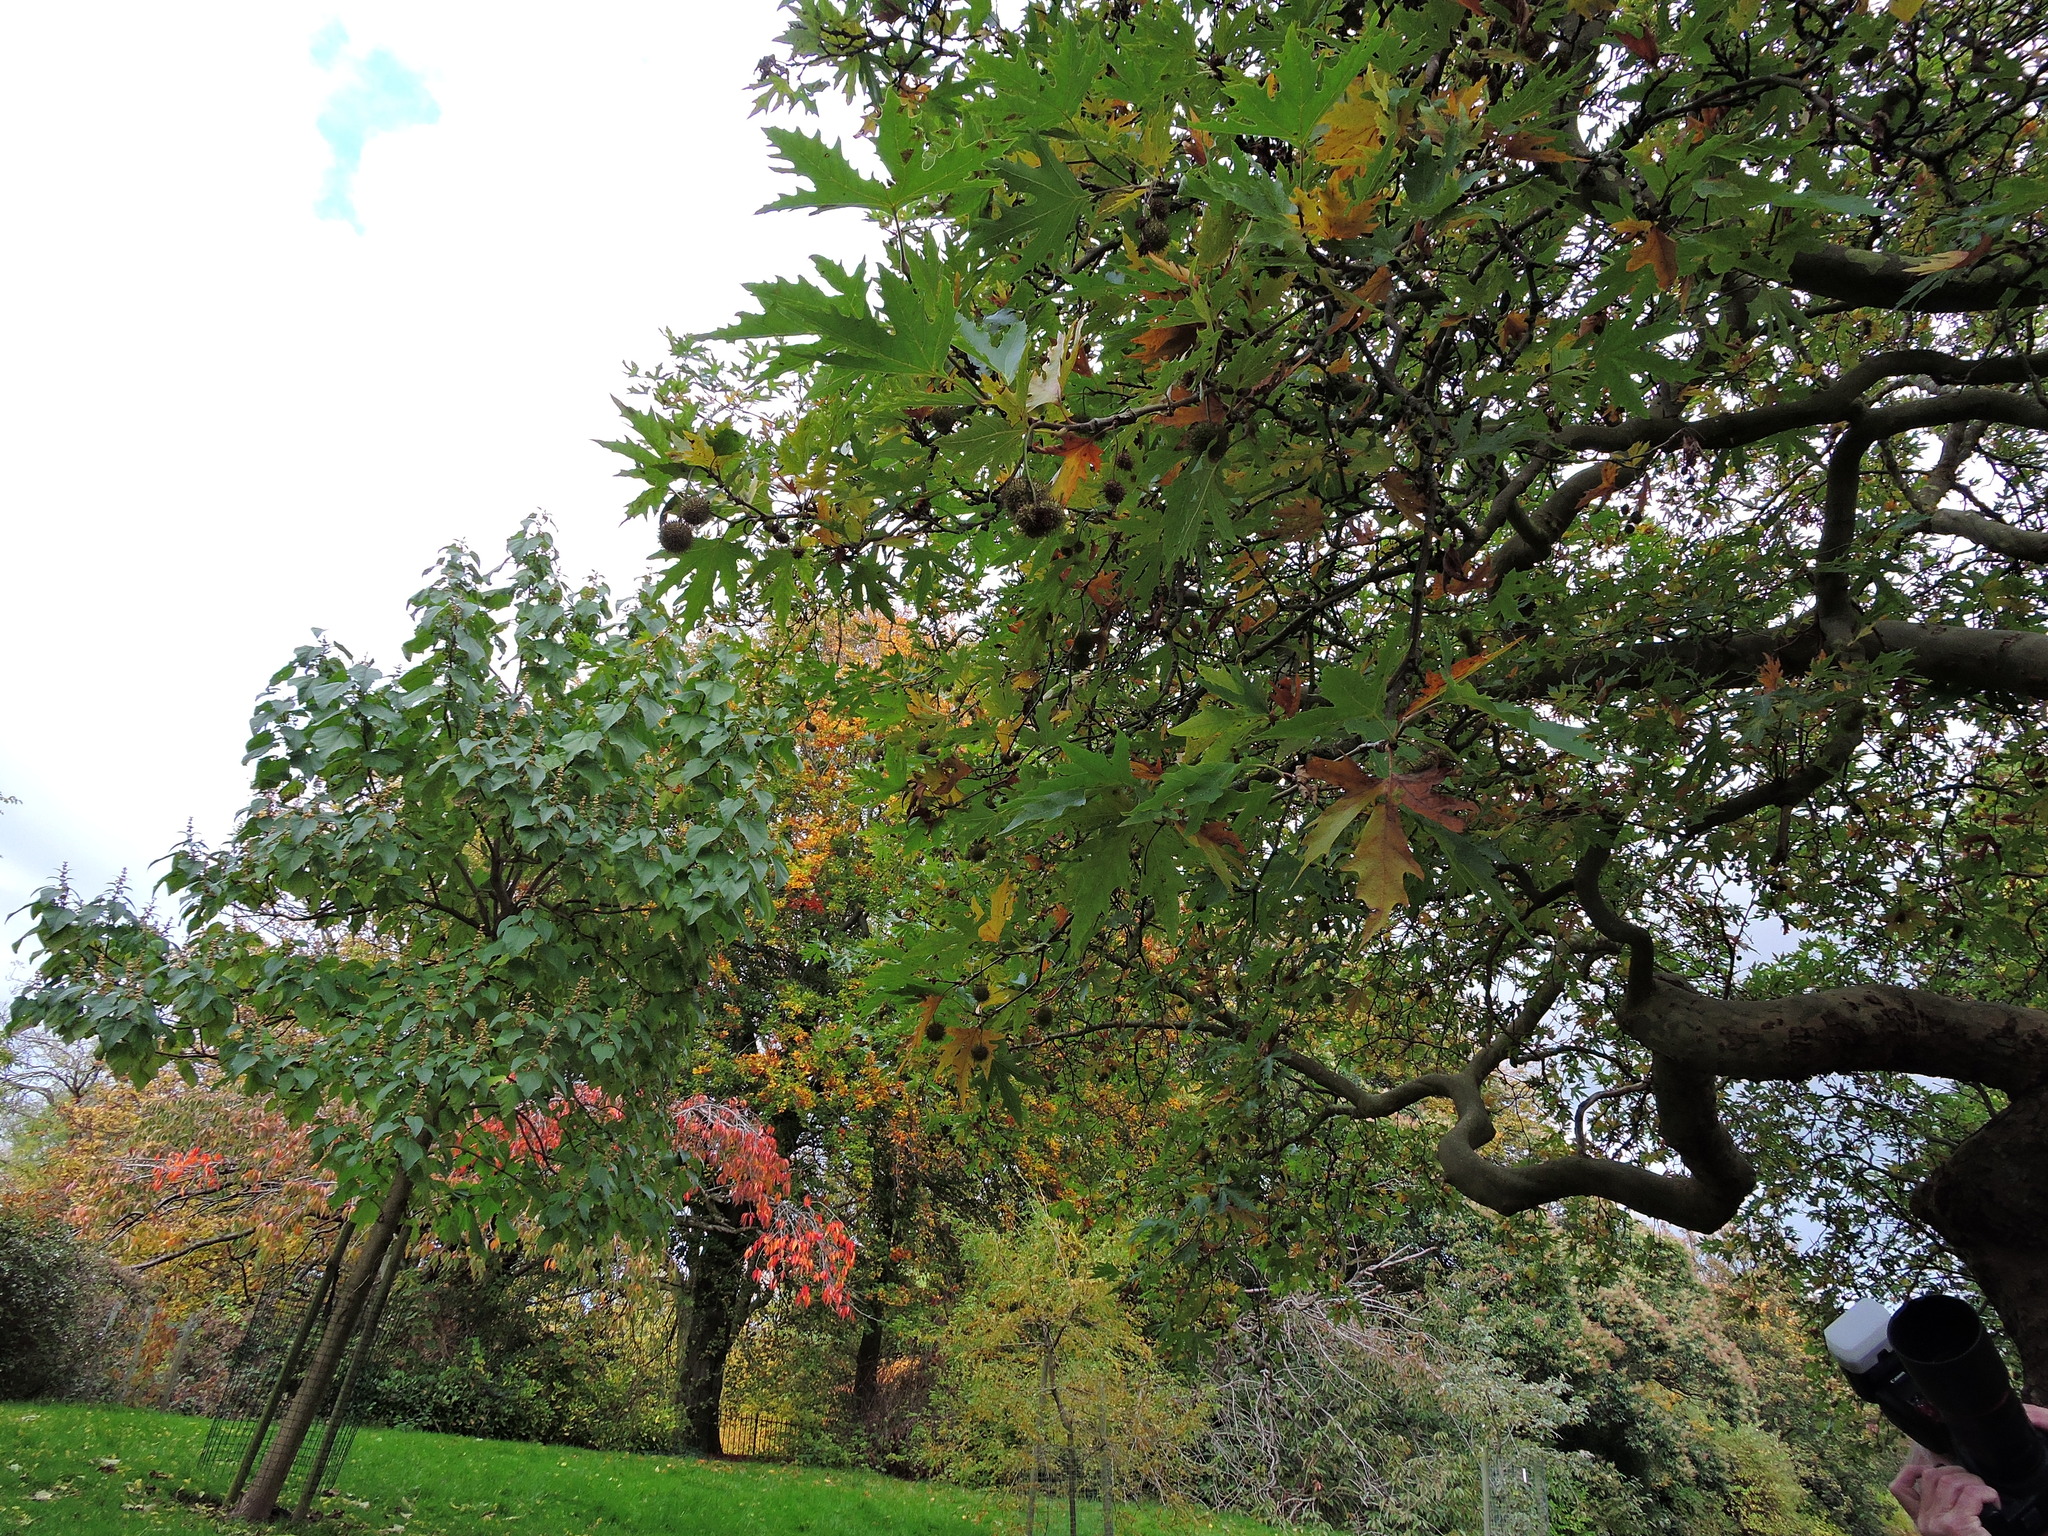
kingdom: Plantae
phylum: Tracheophyta
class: Magnoliopsida
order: Proteales
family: Platanaceae
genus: Platanus
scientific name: Platanus orientalis
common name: Oriental plane
